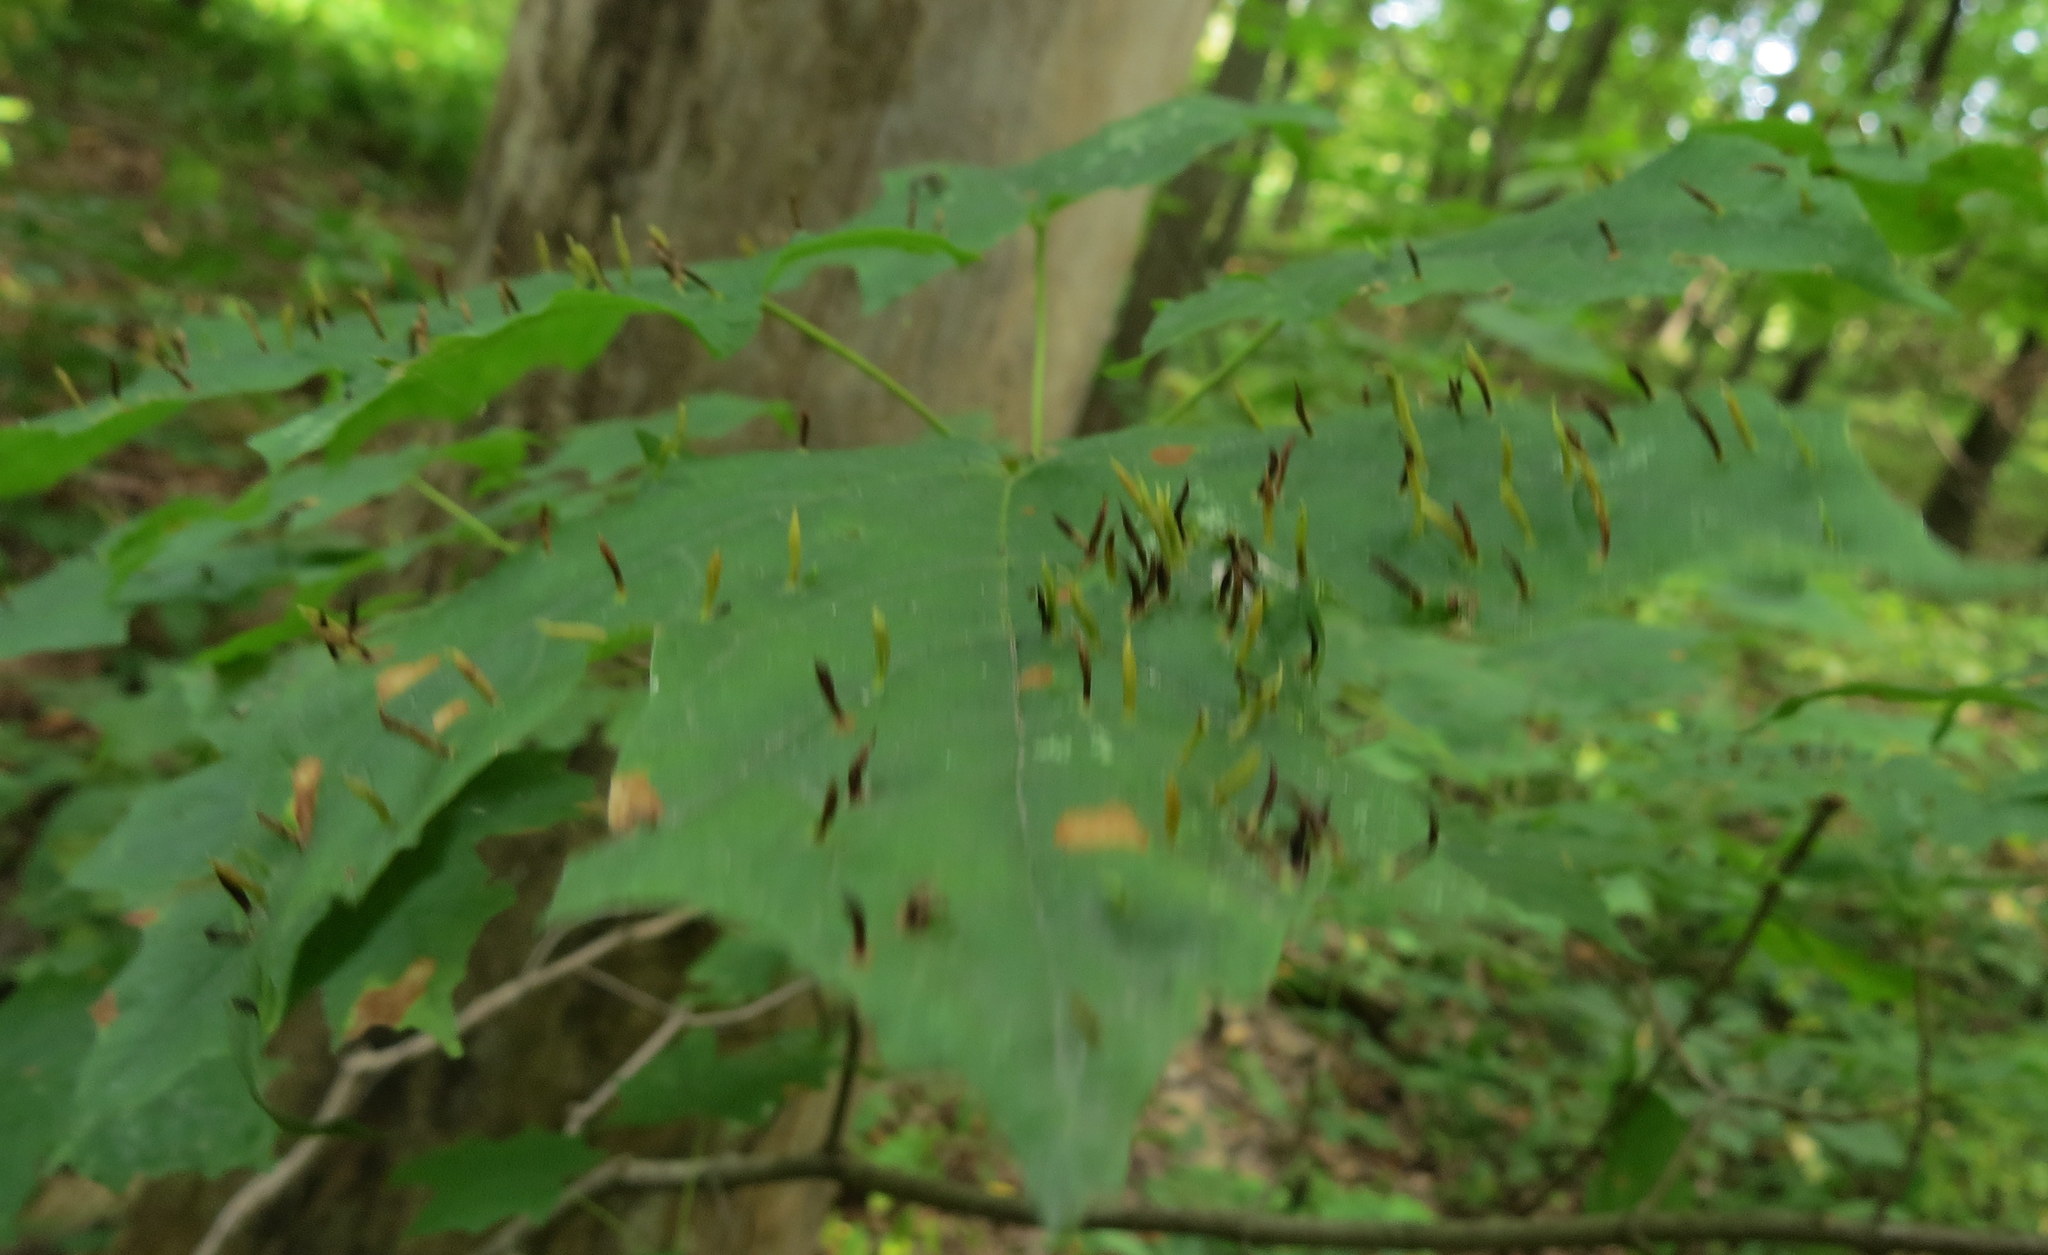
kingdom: Animalia
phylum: Arthropoda
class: Arachnida
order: Trombidiformes
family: Eriophyidae
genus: Vasates
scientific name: Vasates aceriscrumena
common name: Maple spindle gall mite
